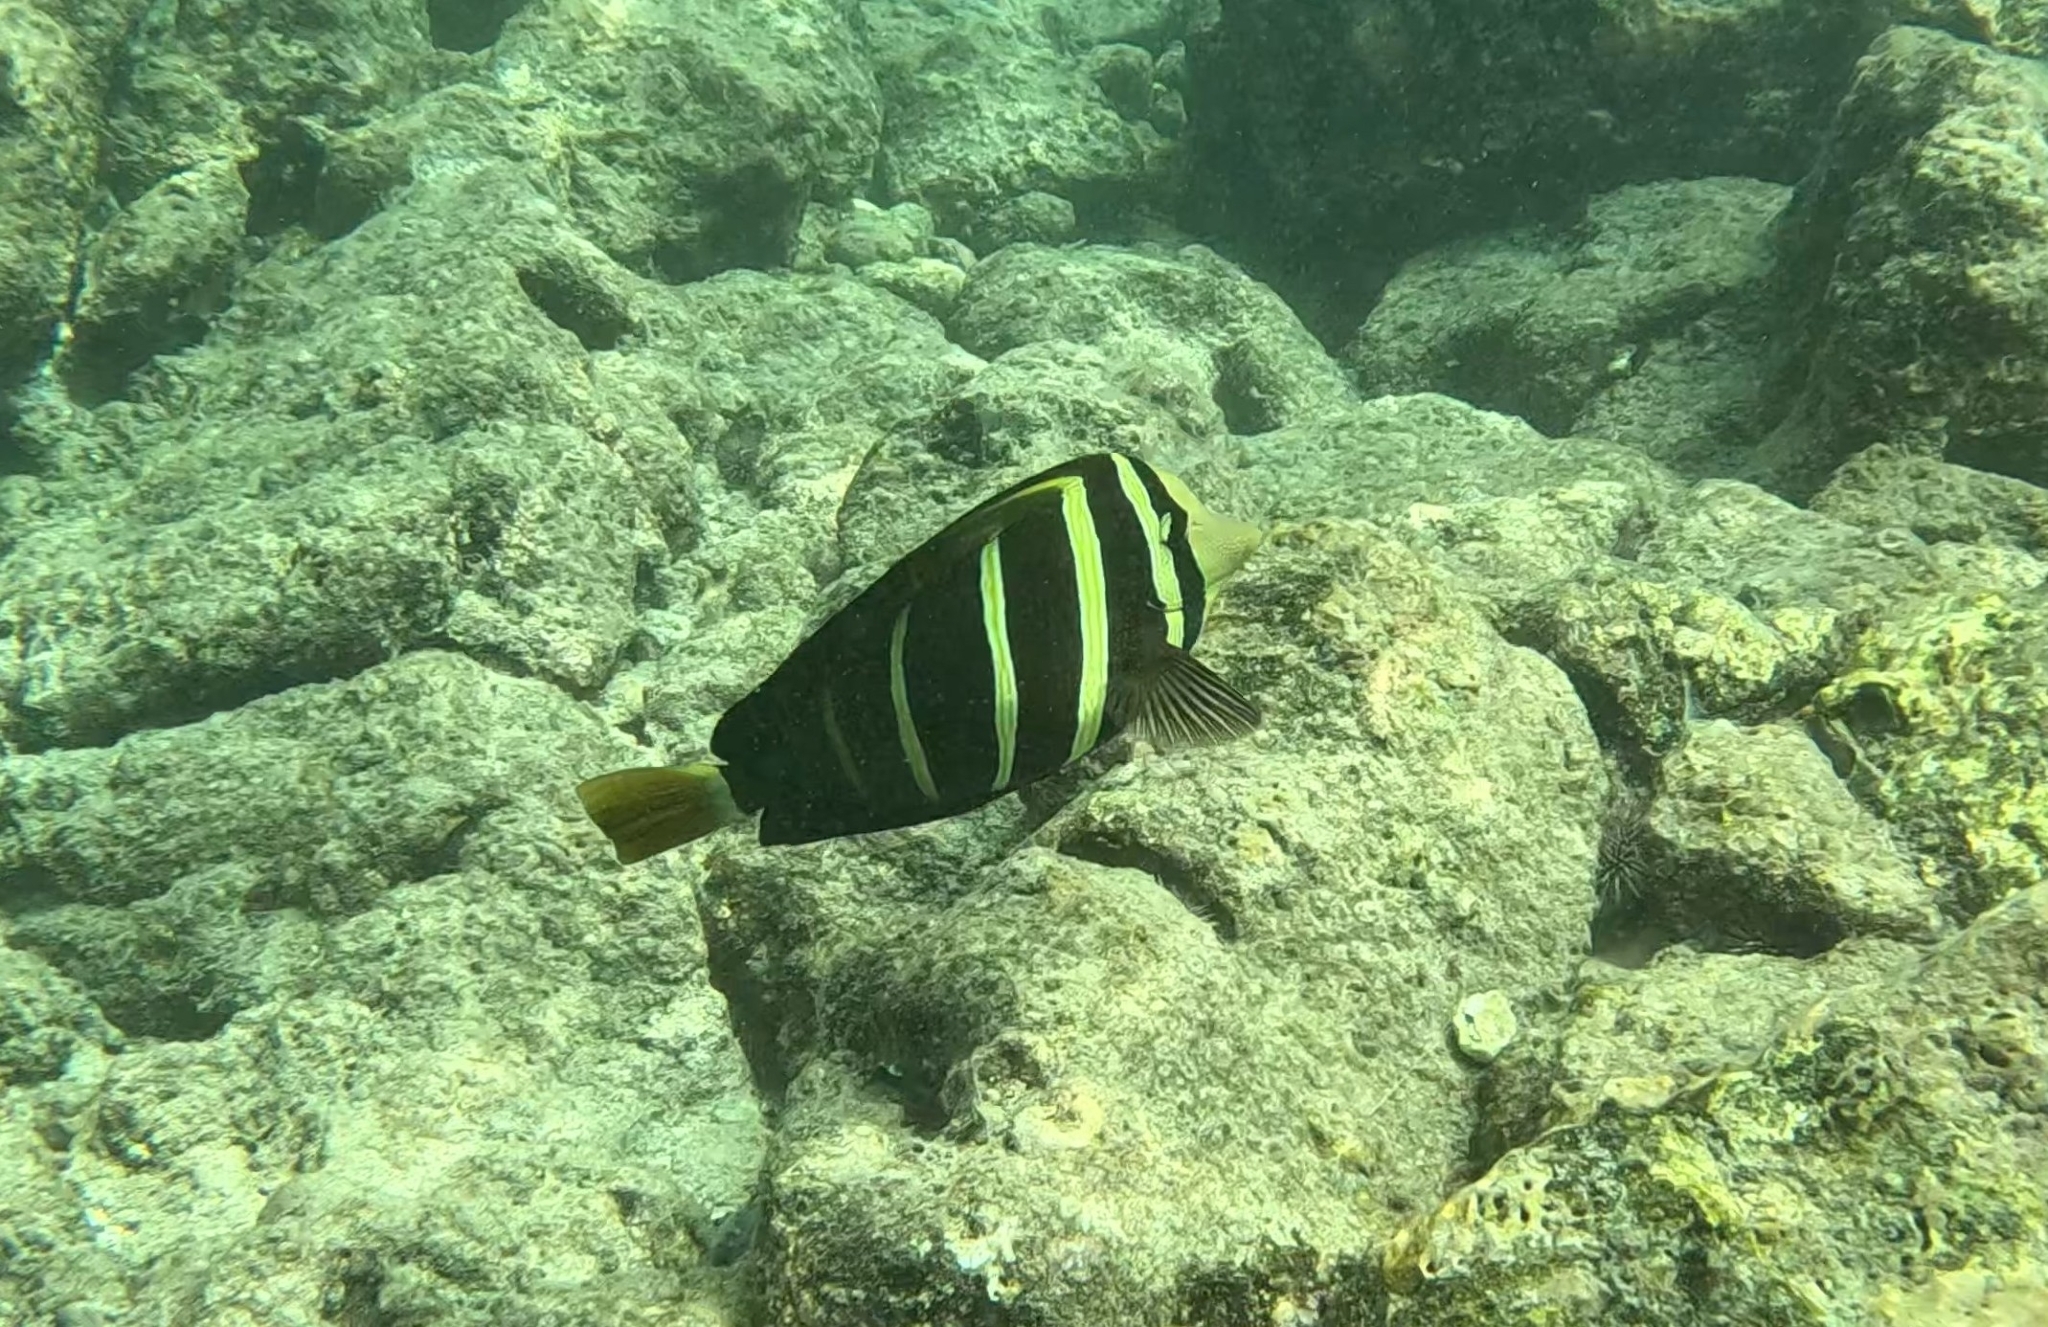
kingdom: Animalia
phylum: Chordata
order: Perciformes
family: Acanthuridae
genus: Zebrasoma
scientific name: Zebrasoma veliferum
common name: Sailfin surgeonfish
